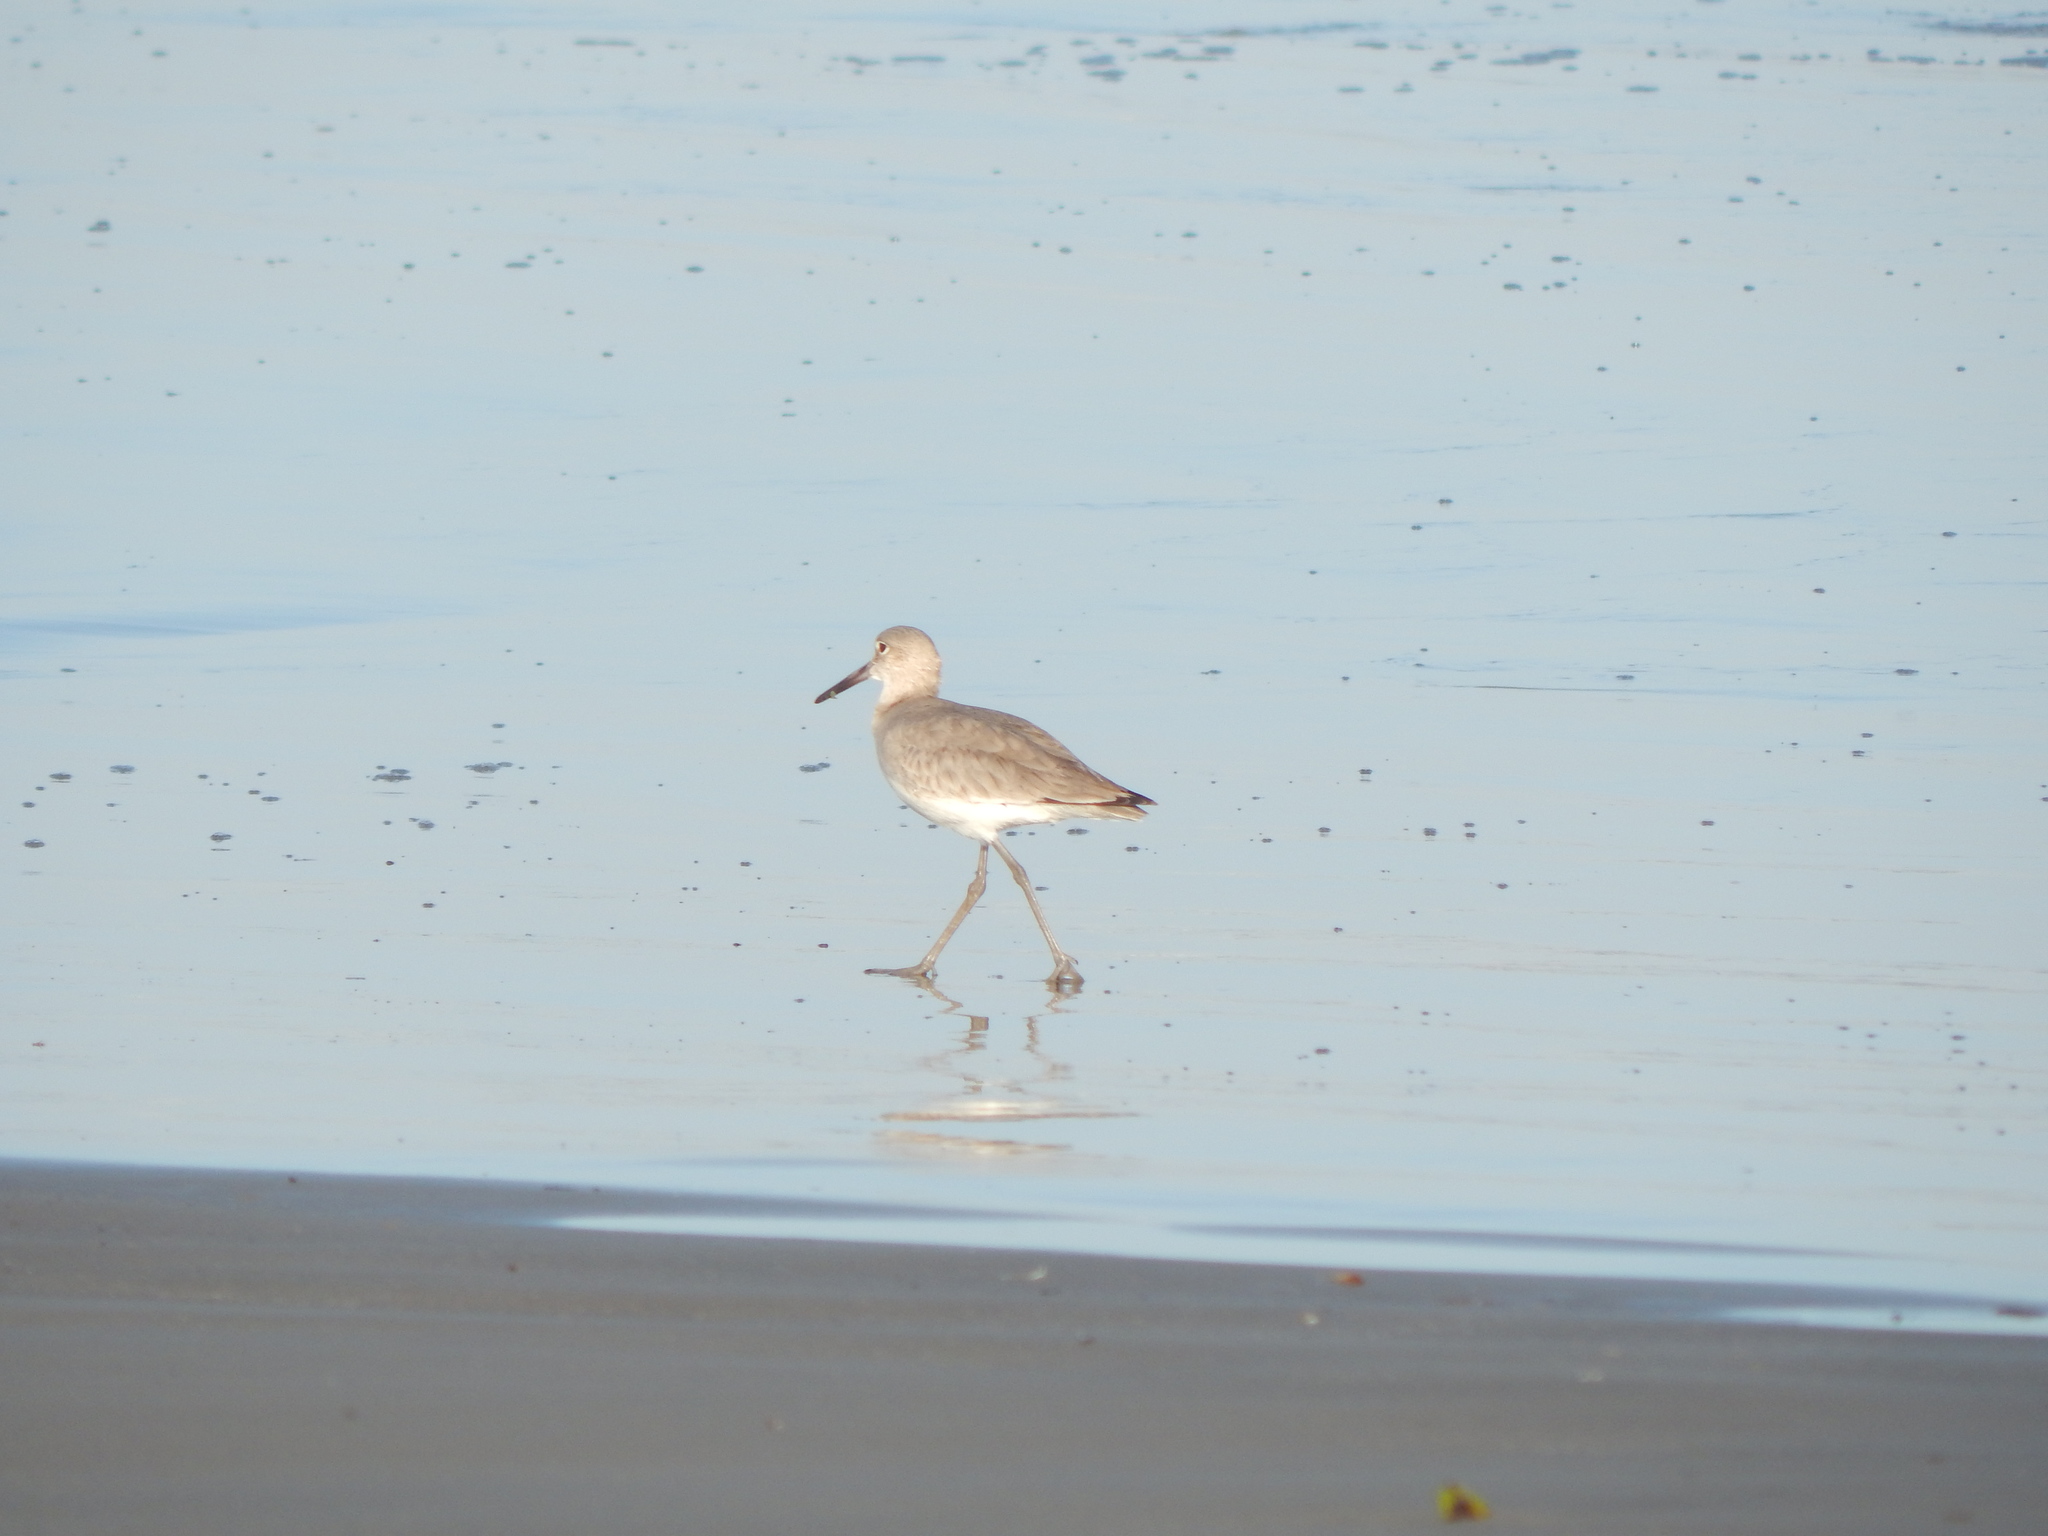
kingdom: Animalia
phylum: Chordata
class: Aves
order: Charadriiformes
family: Scolopacidae
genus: Tringa
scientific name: Tringa semipalmata
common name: Willet
